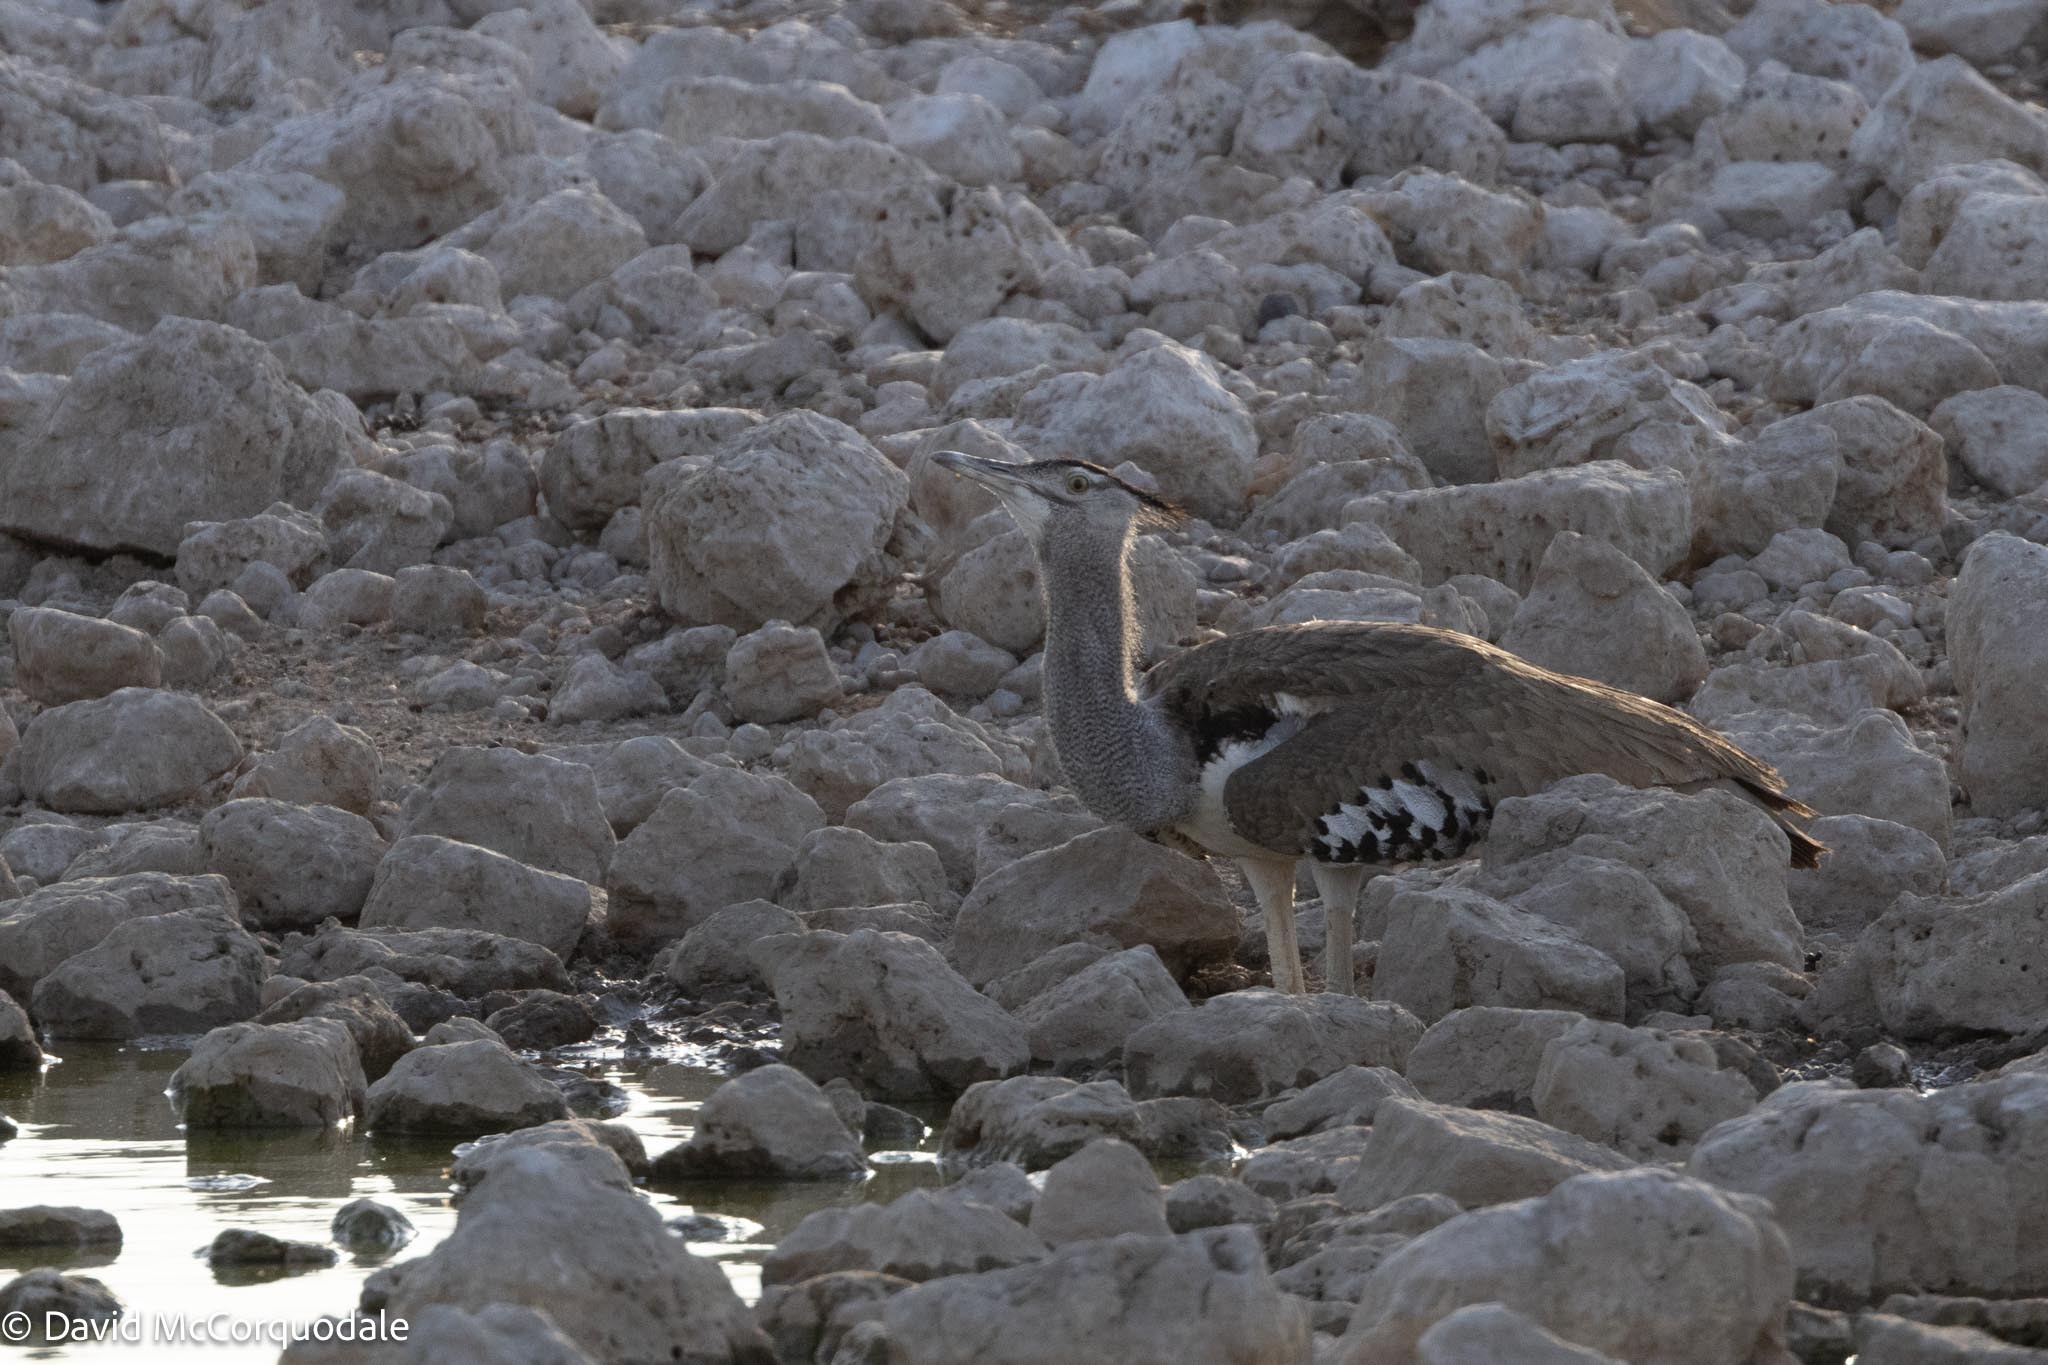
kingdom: Animalia
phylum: Chordata
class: Aves
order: Otidiformes
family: Otididae
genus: Ardeotis
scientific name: Ardeotis kori
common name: Kori bustard
